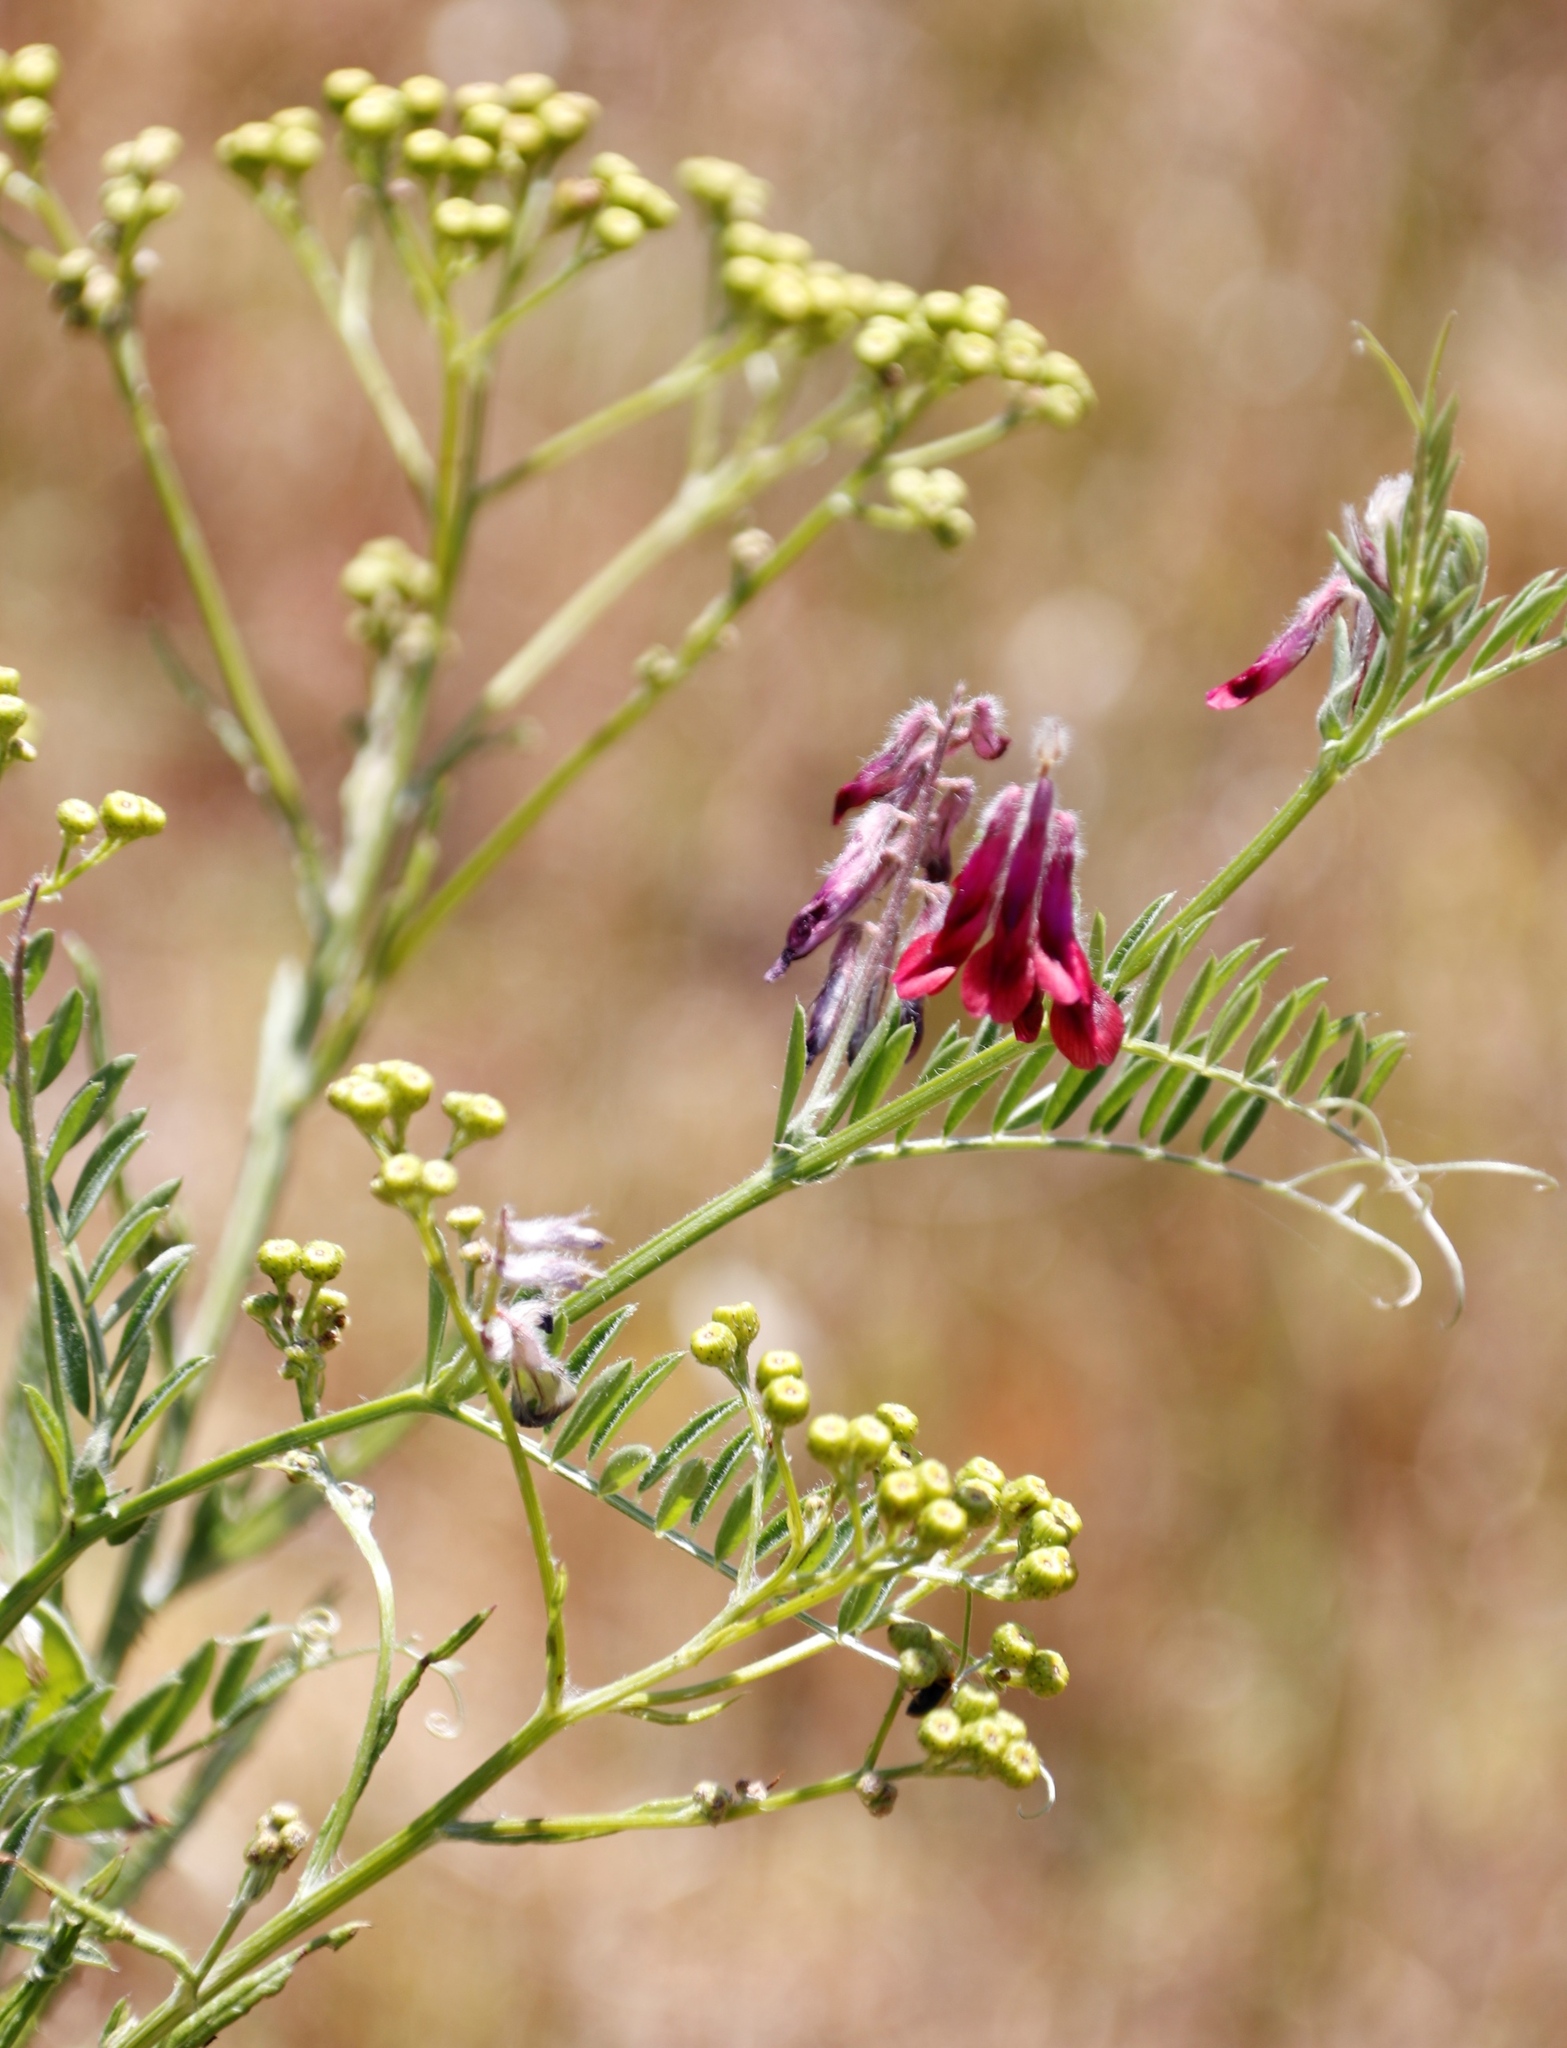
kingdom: Plantae
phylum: Tracheophyta
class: Magnoliopsida
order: Fabales
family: Fabaceae
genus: Vicia
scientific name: Vicia benghalensis
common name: Purple vetch
